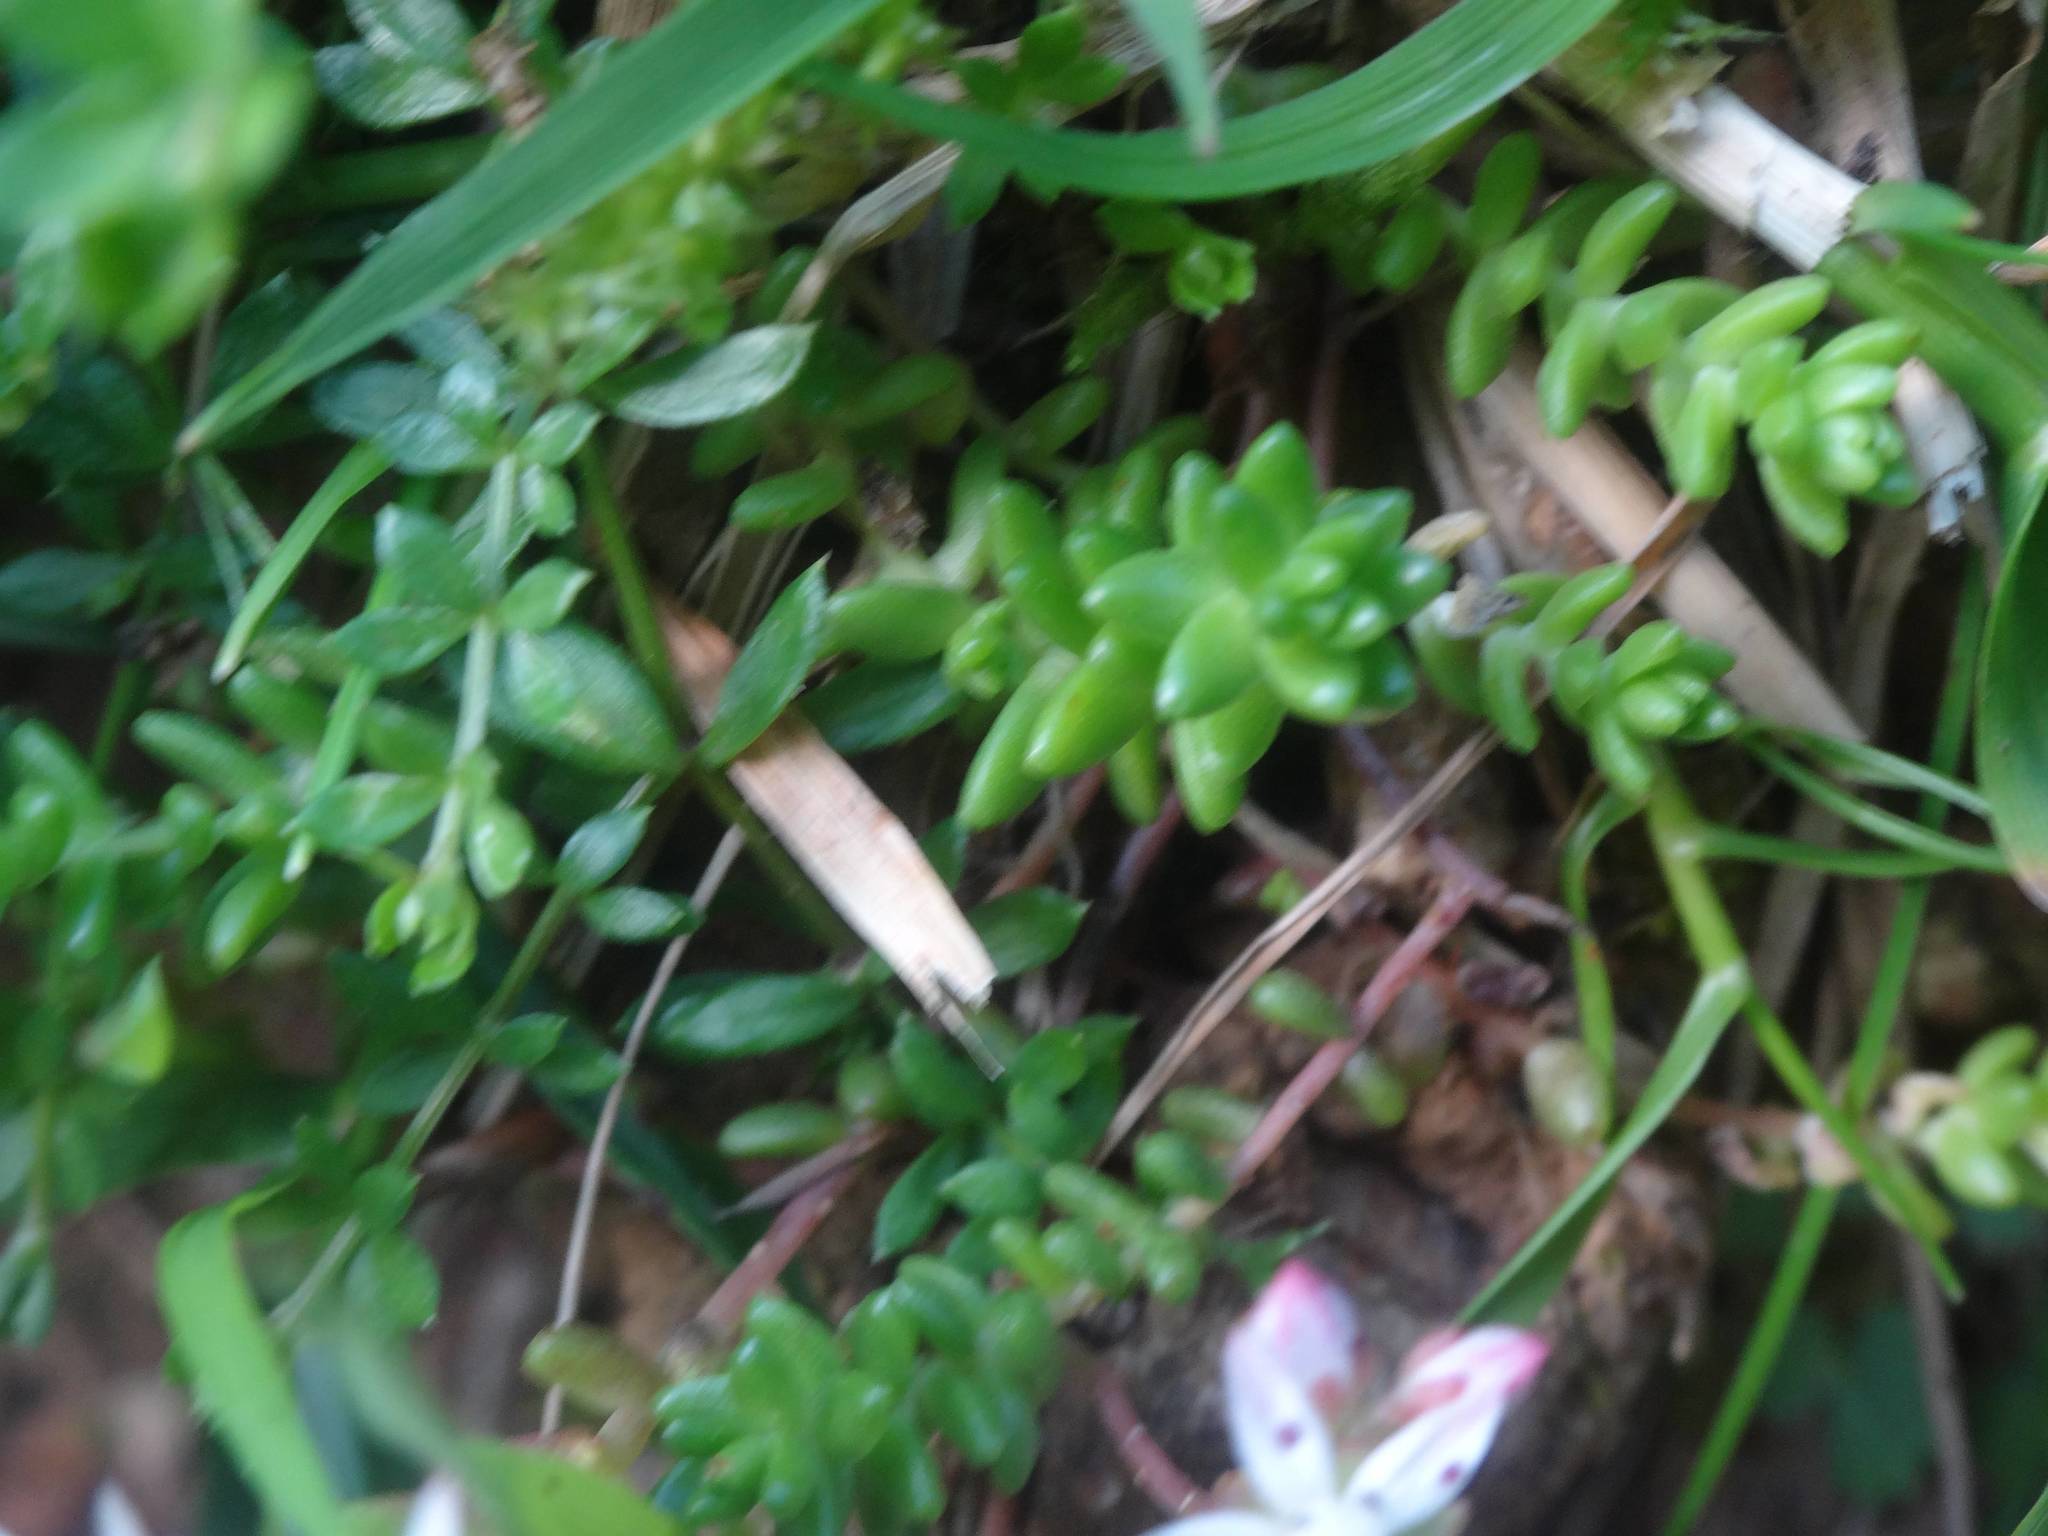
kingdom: Plantae
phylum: Tracheophyta
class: Magnoliopsida
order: Saxifragales
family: Crassulaceae
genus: Sedum
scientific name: Sedum anglicum
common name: English stonecrop
